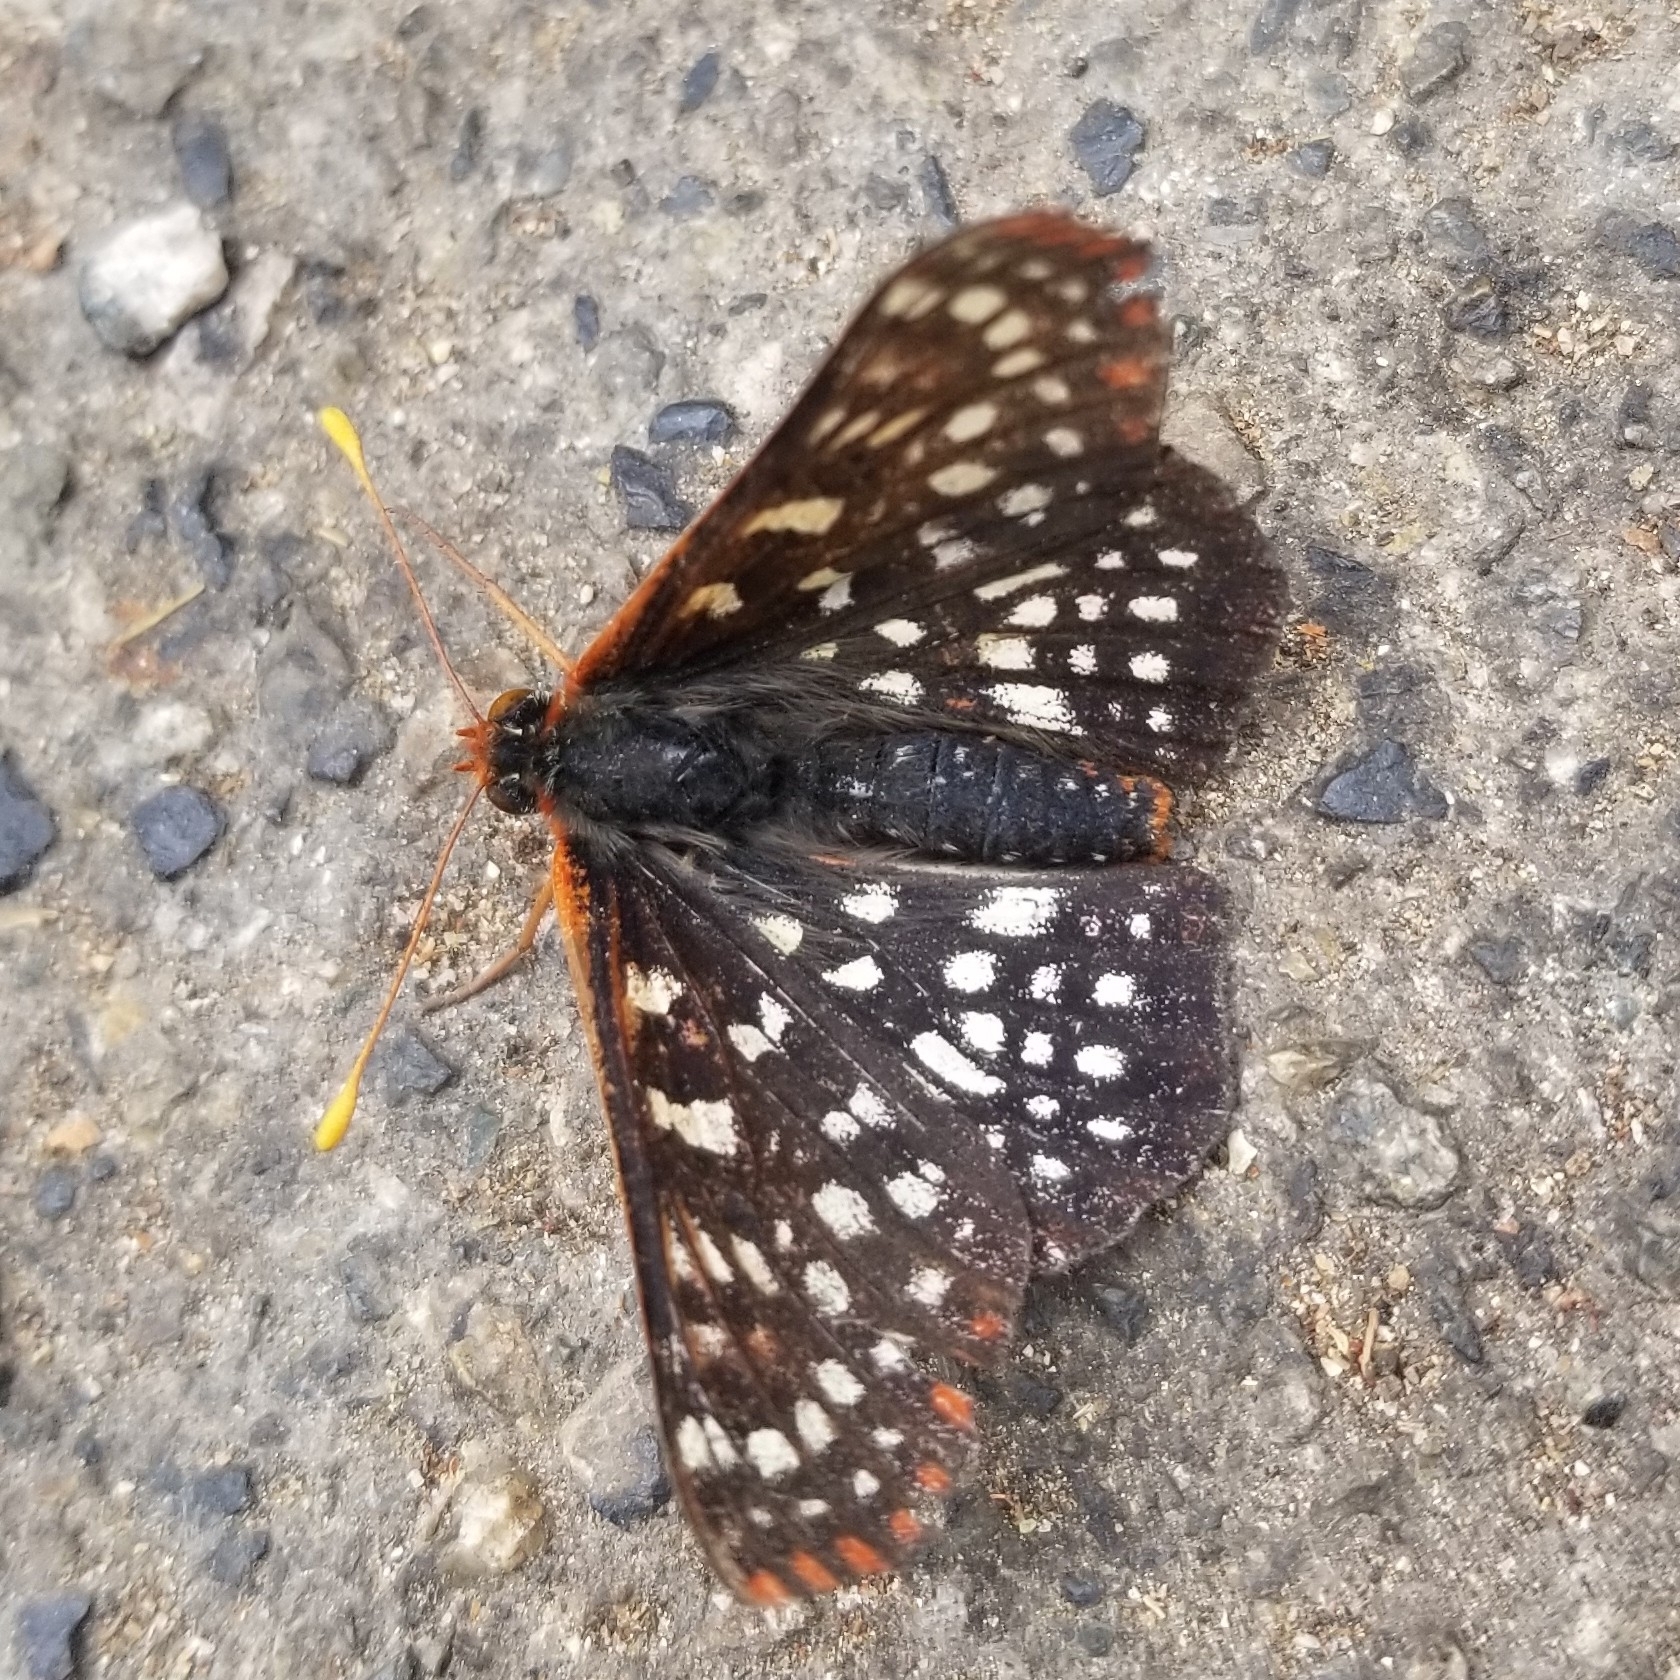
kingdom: Animalia
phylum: Arthropoda
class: Insecta
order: Lepidoptera
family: Nymphalidae
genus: Occidryas
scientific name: Occidryas chalcedona
